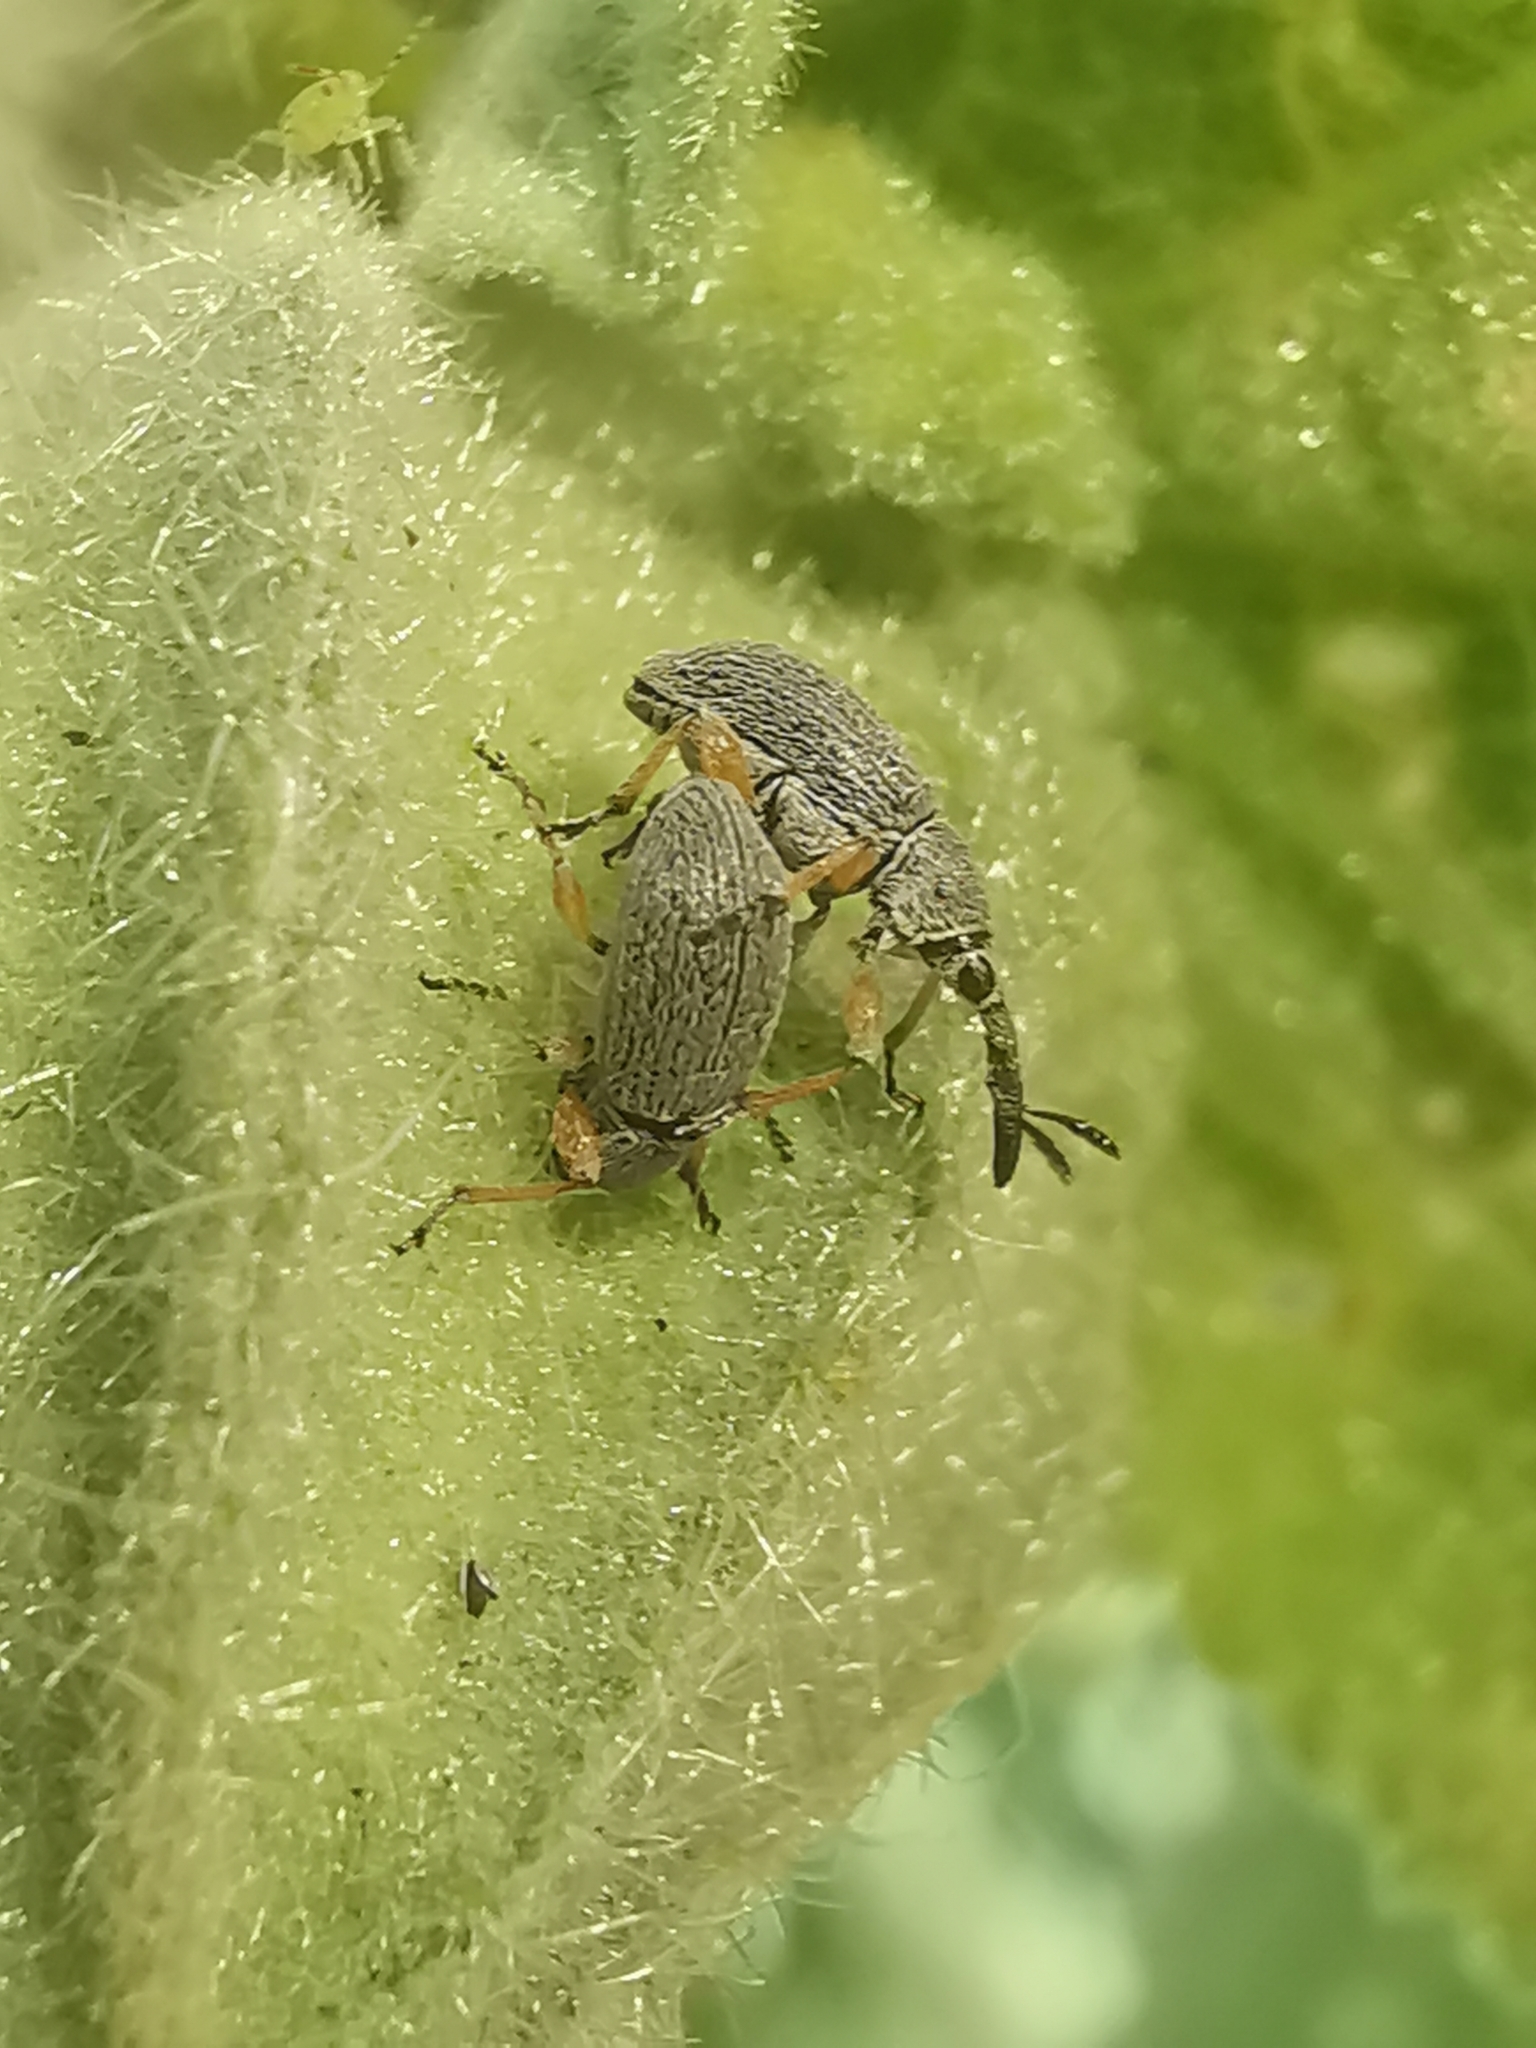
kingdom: Animalia
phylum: Arthropoda
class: Insecta
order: Coleoptera
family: Brentidae
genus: Rhopalapion
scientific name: Rhopalapion longirostre
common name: Hollyhock weevil
